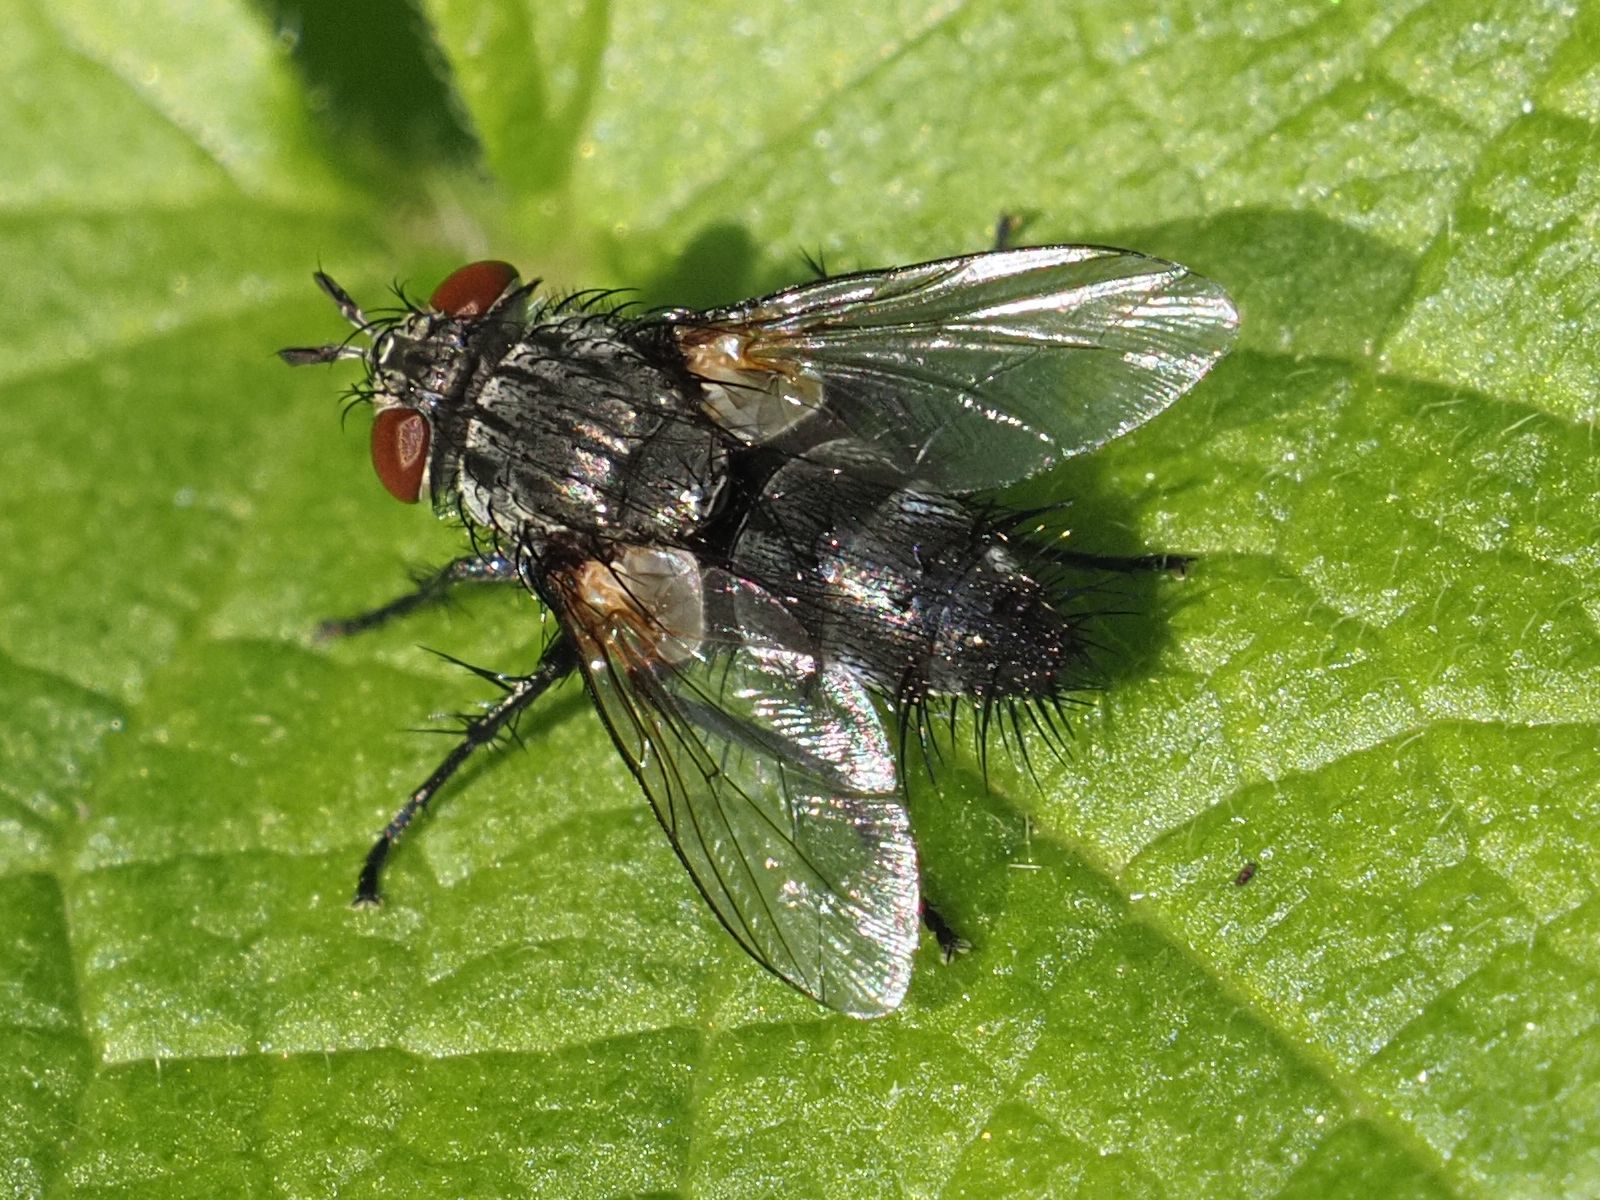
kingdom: Animalia
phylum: Arthropoda
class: Insecta
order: Diptera
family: Tachinidae
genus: Voria
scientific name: Voria ruralis
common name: Parasitic fly
